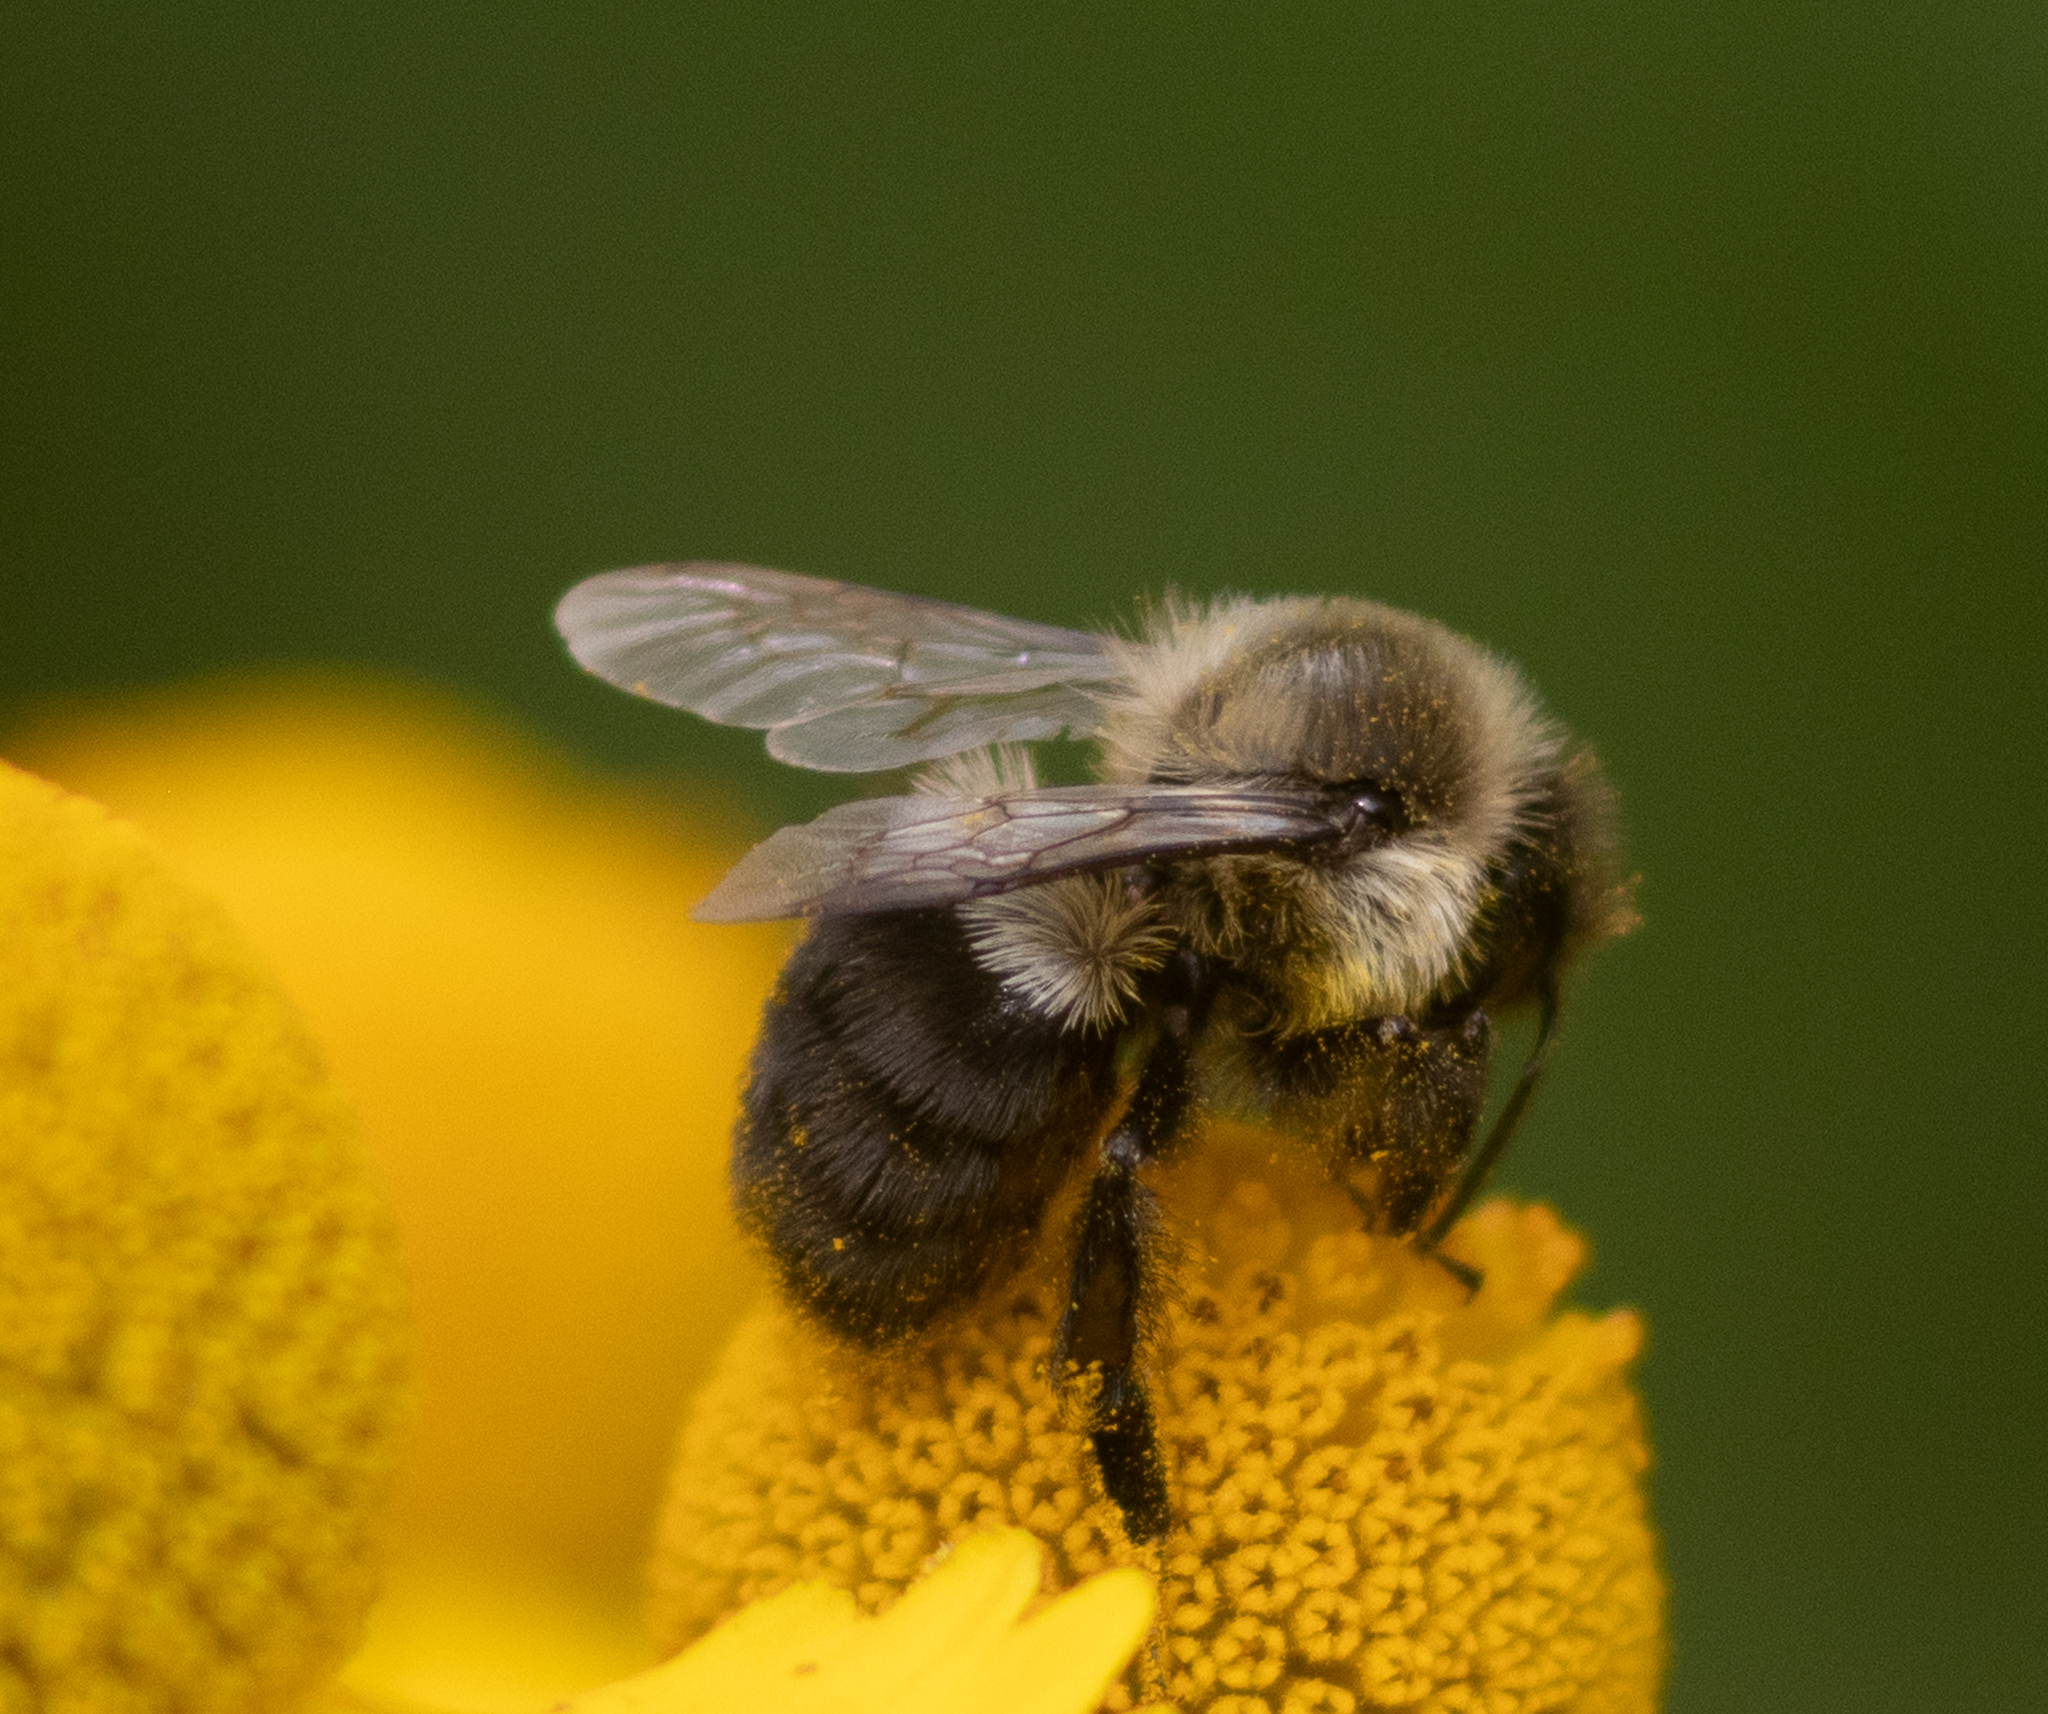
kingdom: Animalia
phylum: Arthropoda
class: Insecta
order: Hymenoptera
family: Apidae
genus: Bombus
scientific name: Bombus impatiens
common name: Common eastern bumble bee
